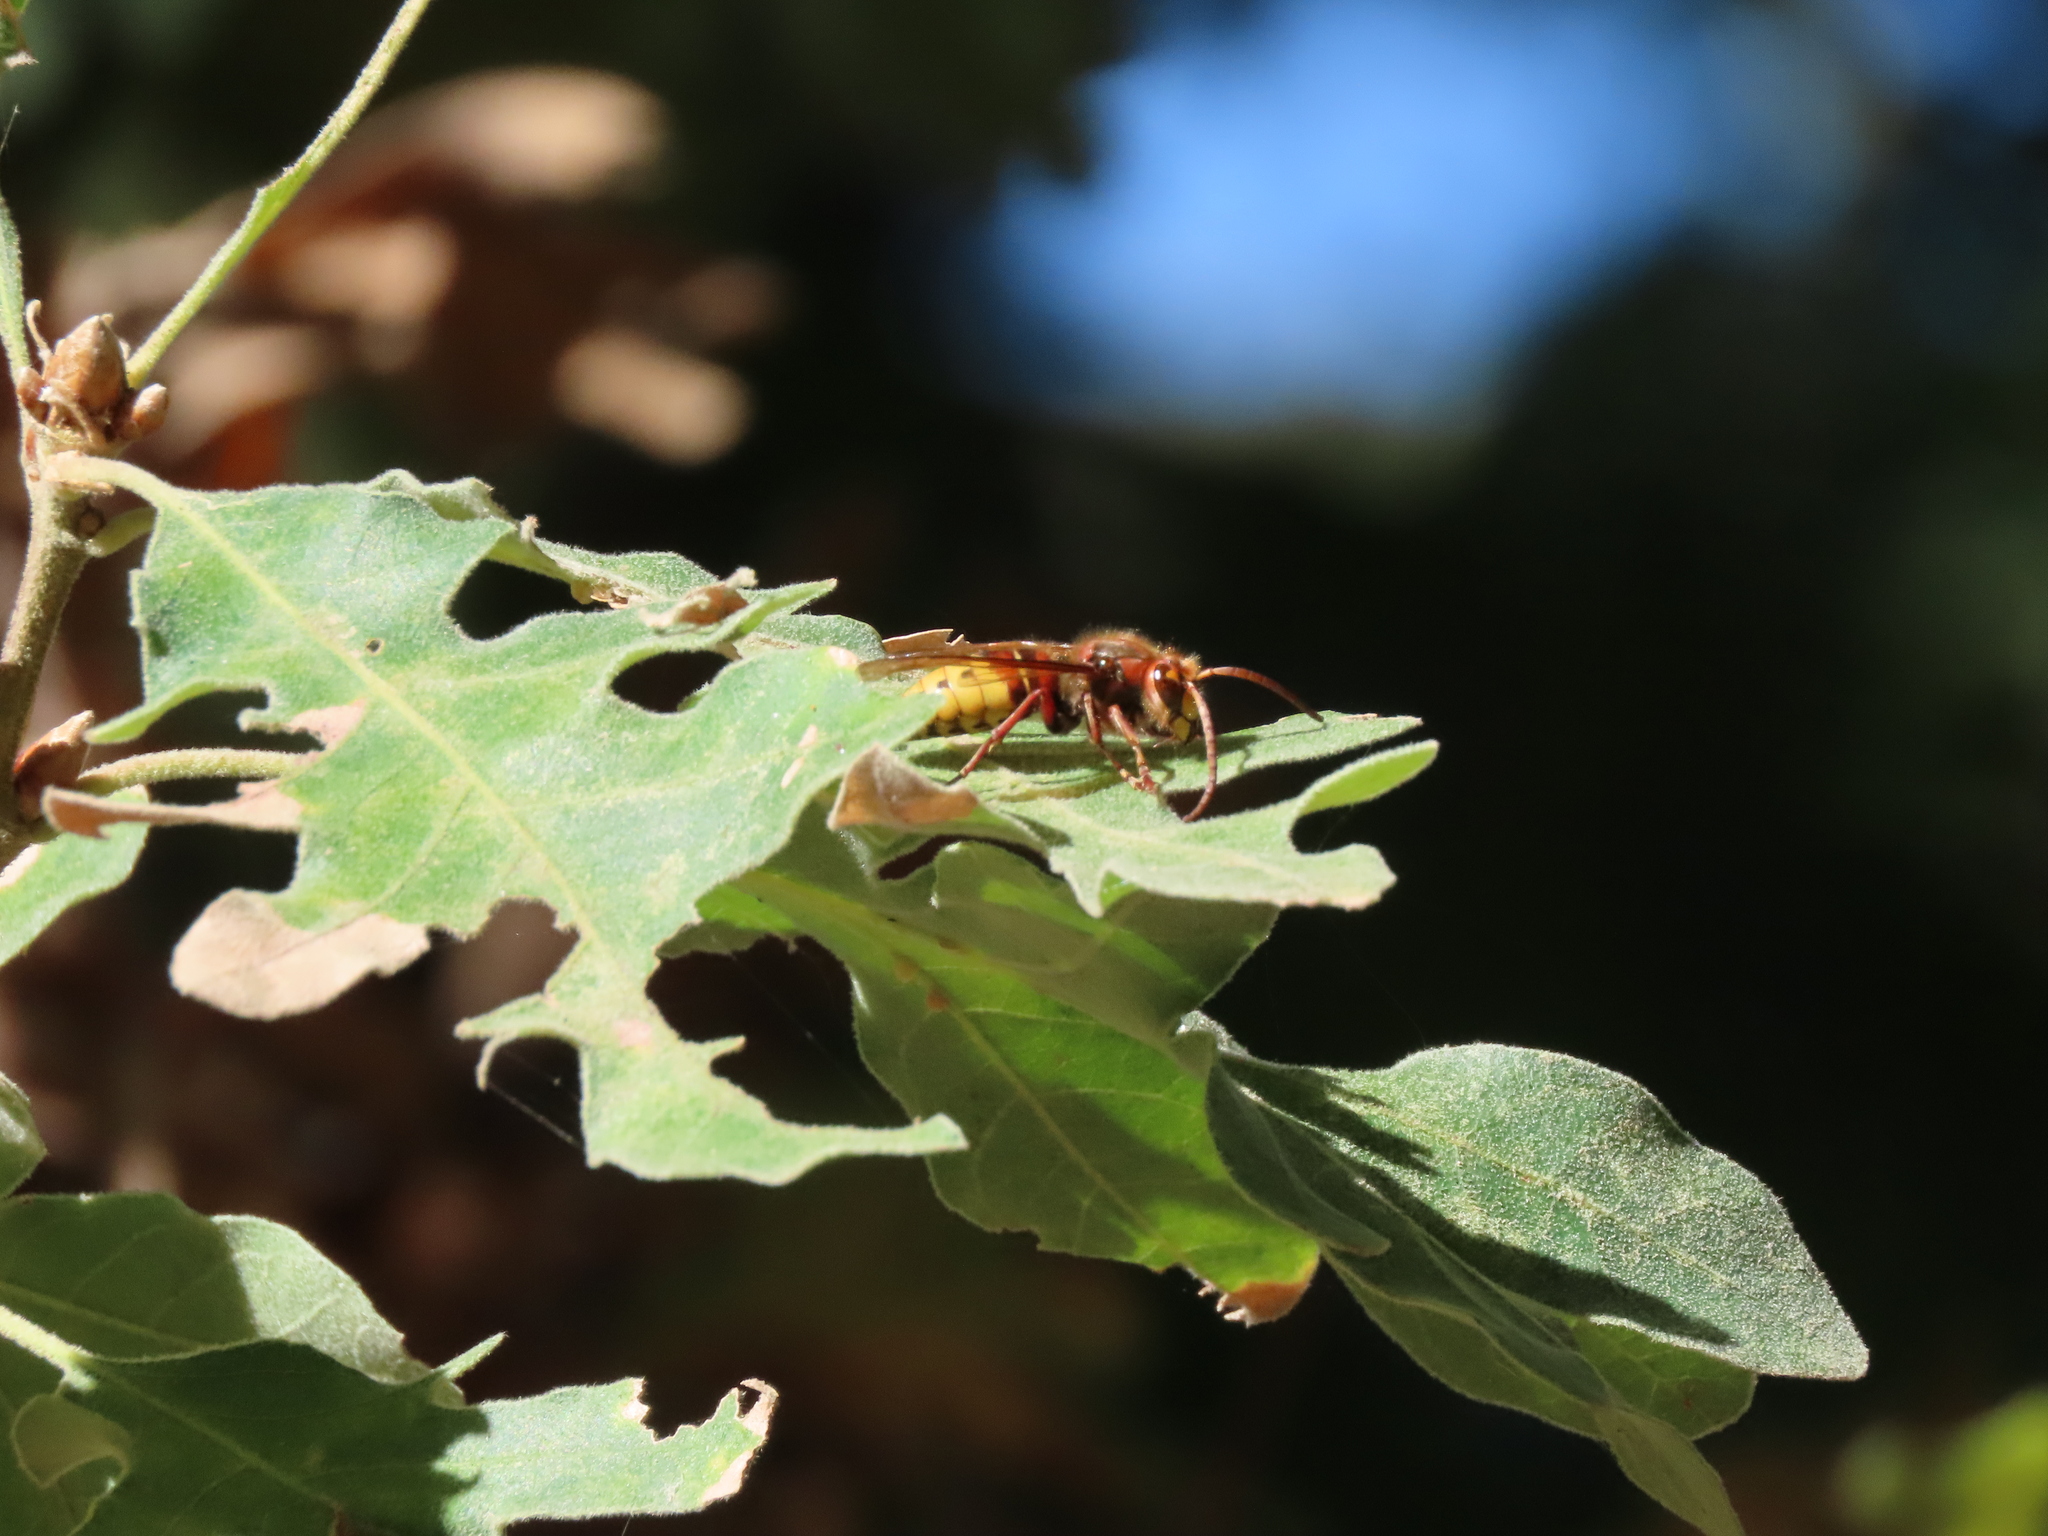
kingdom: Animalia
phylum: Arthropoda
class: Insecta
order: Hymenoptera
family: Vespidae
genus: Vespa
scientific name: Vespa crabro
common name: Hornet
